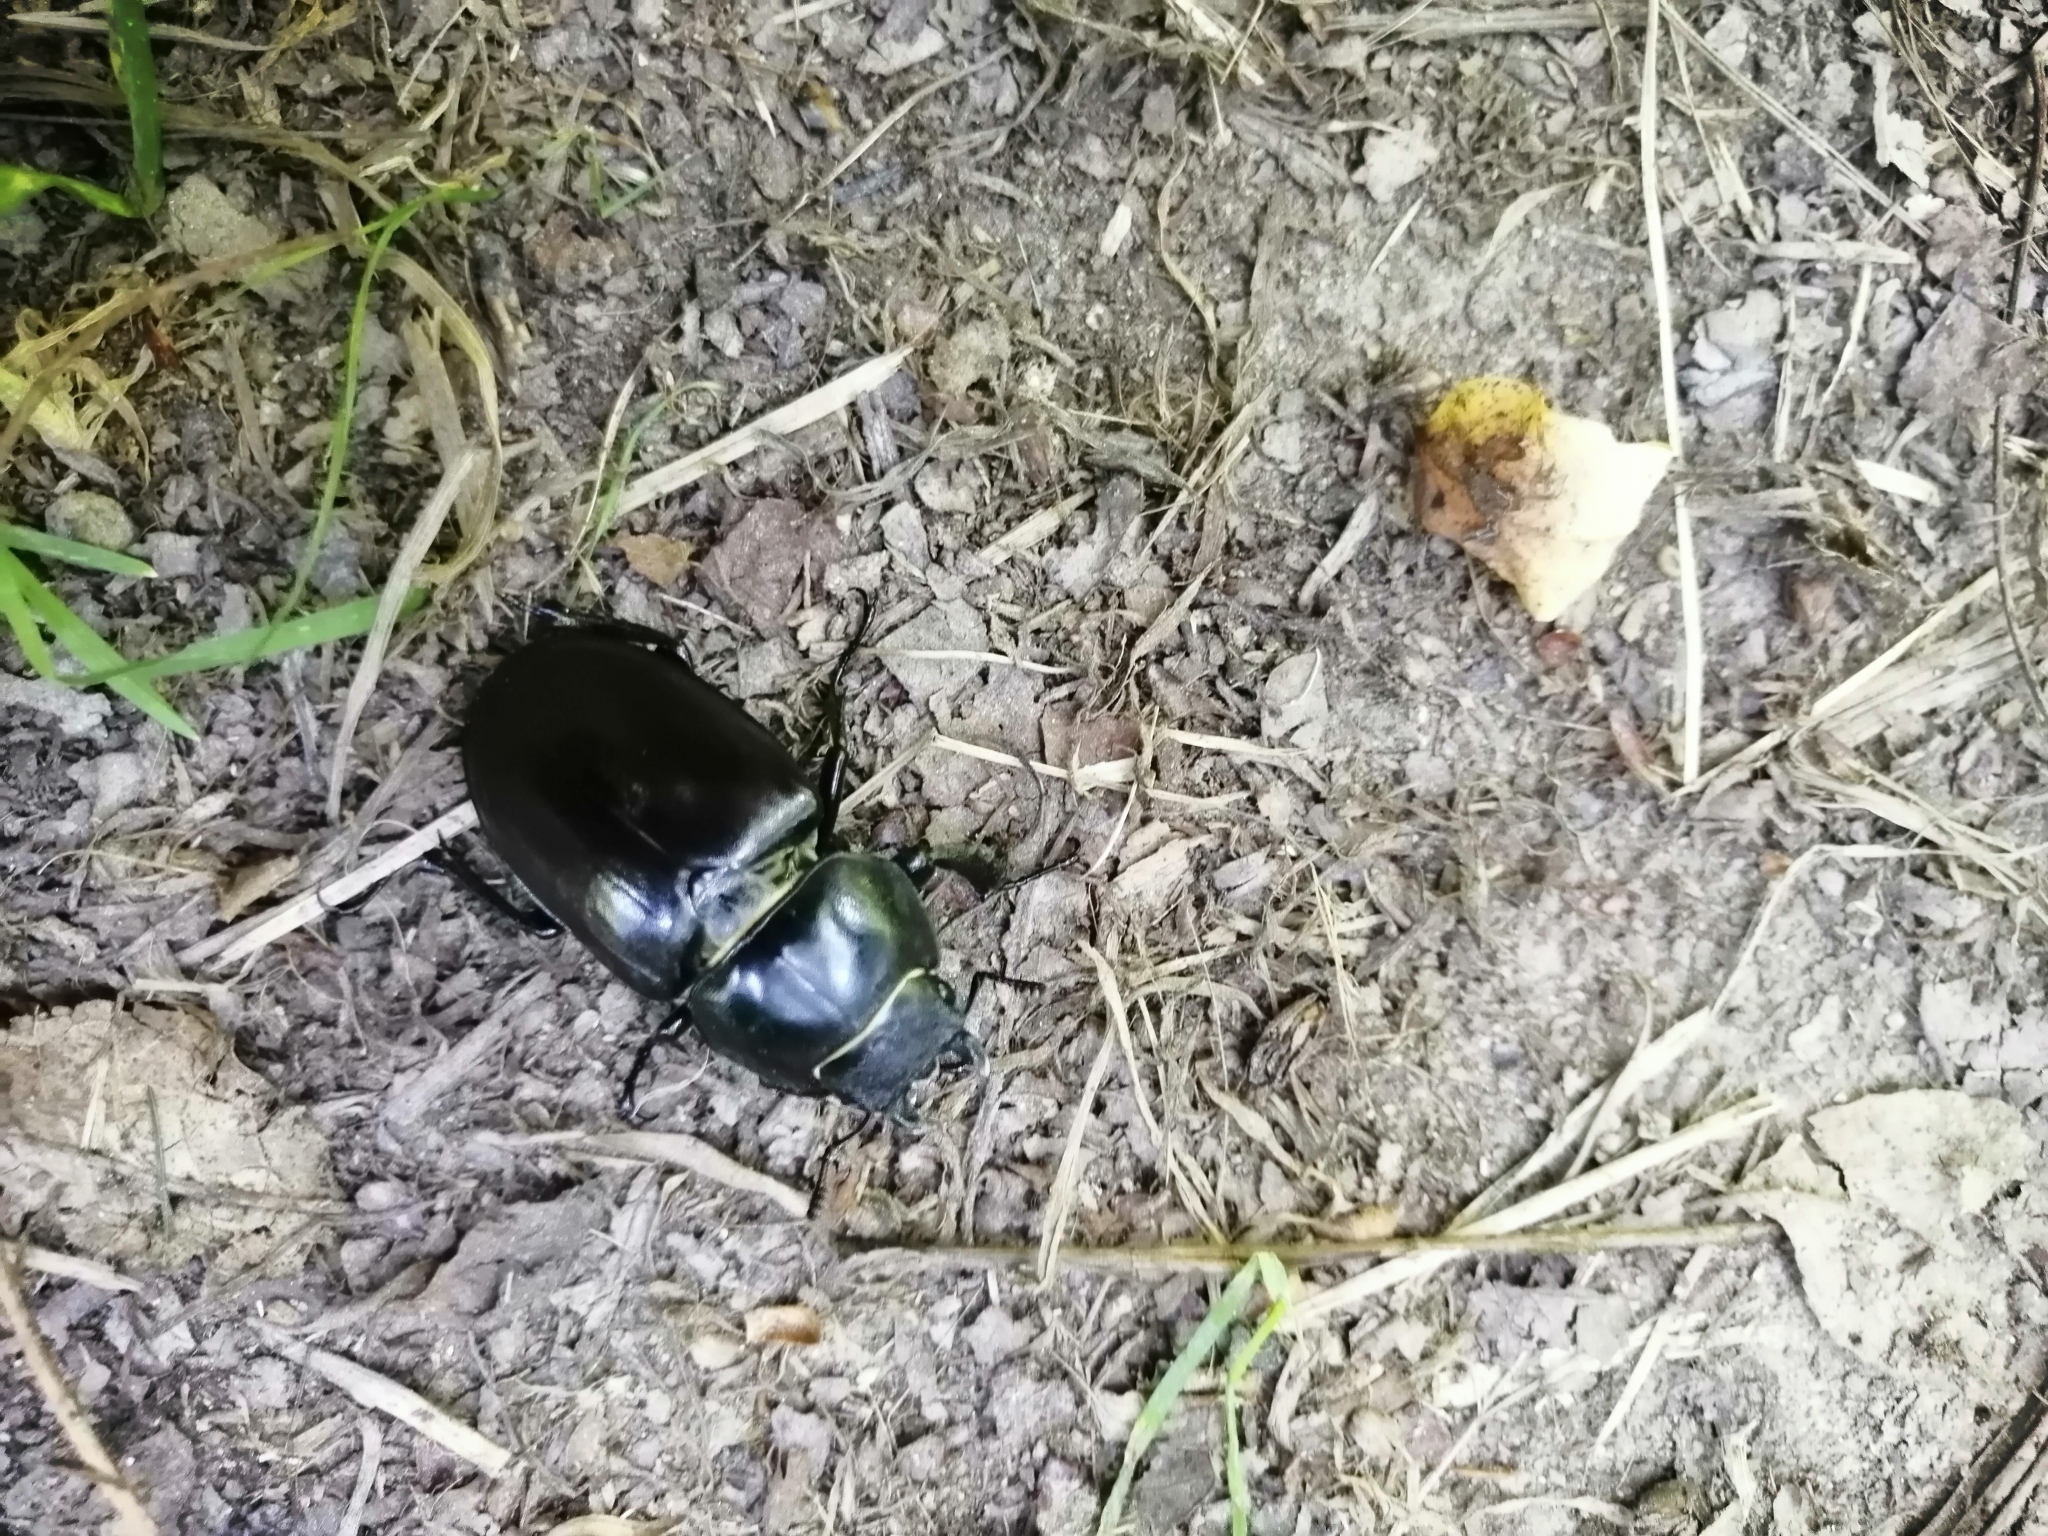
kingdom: Animalia
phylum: Arthropoda
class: Insecta
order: Coleoptera
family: Lucanidae
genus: Lucanus
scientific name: Lucanus cervus
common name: Stag beetle
